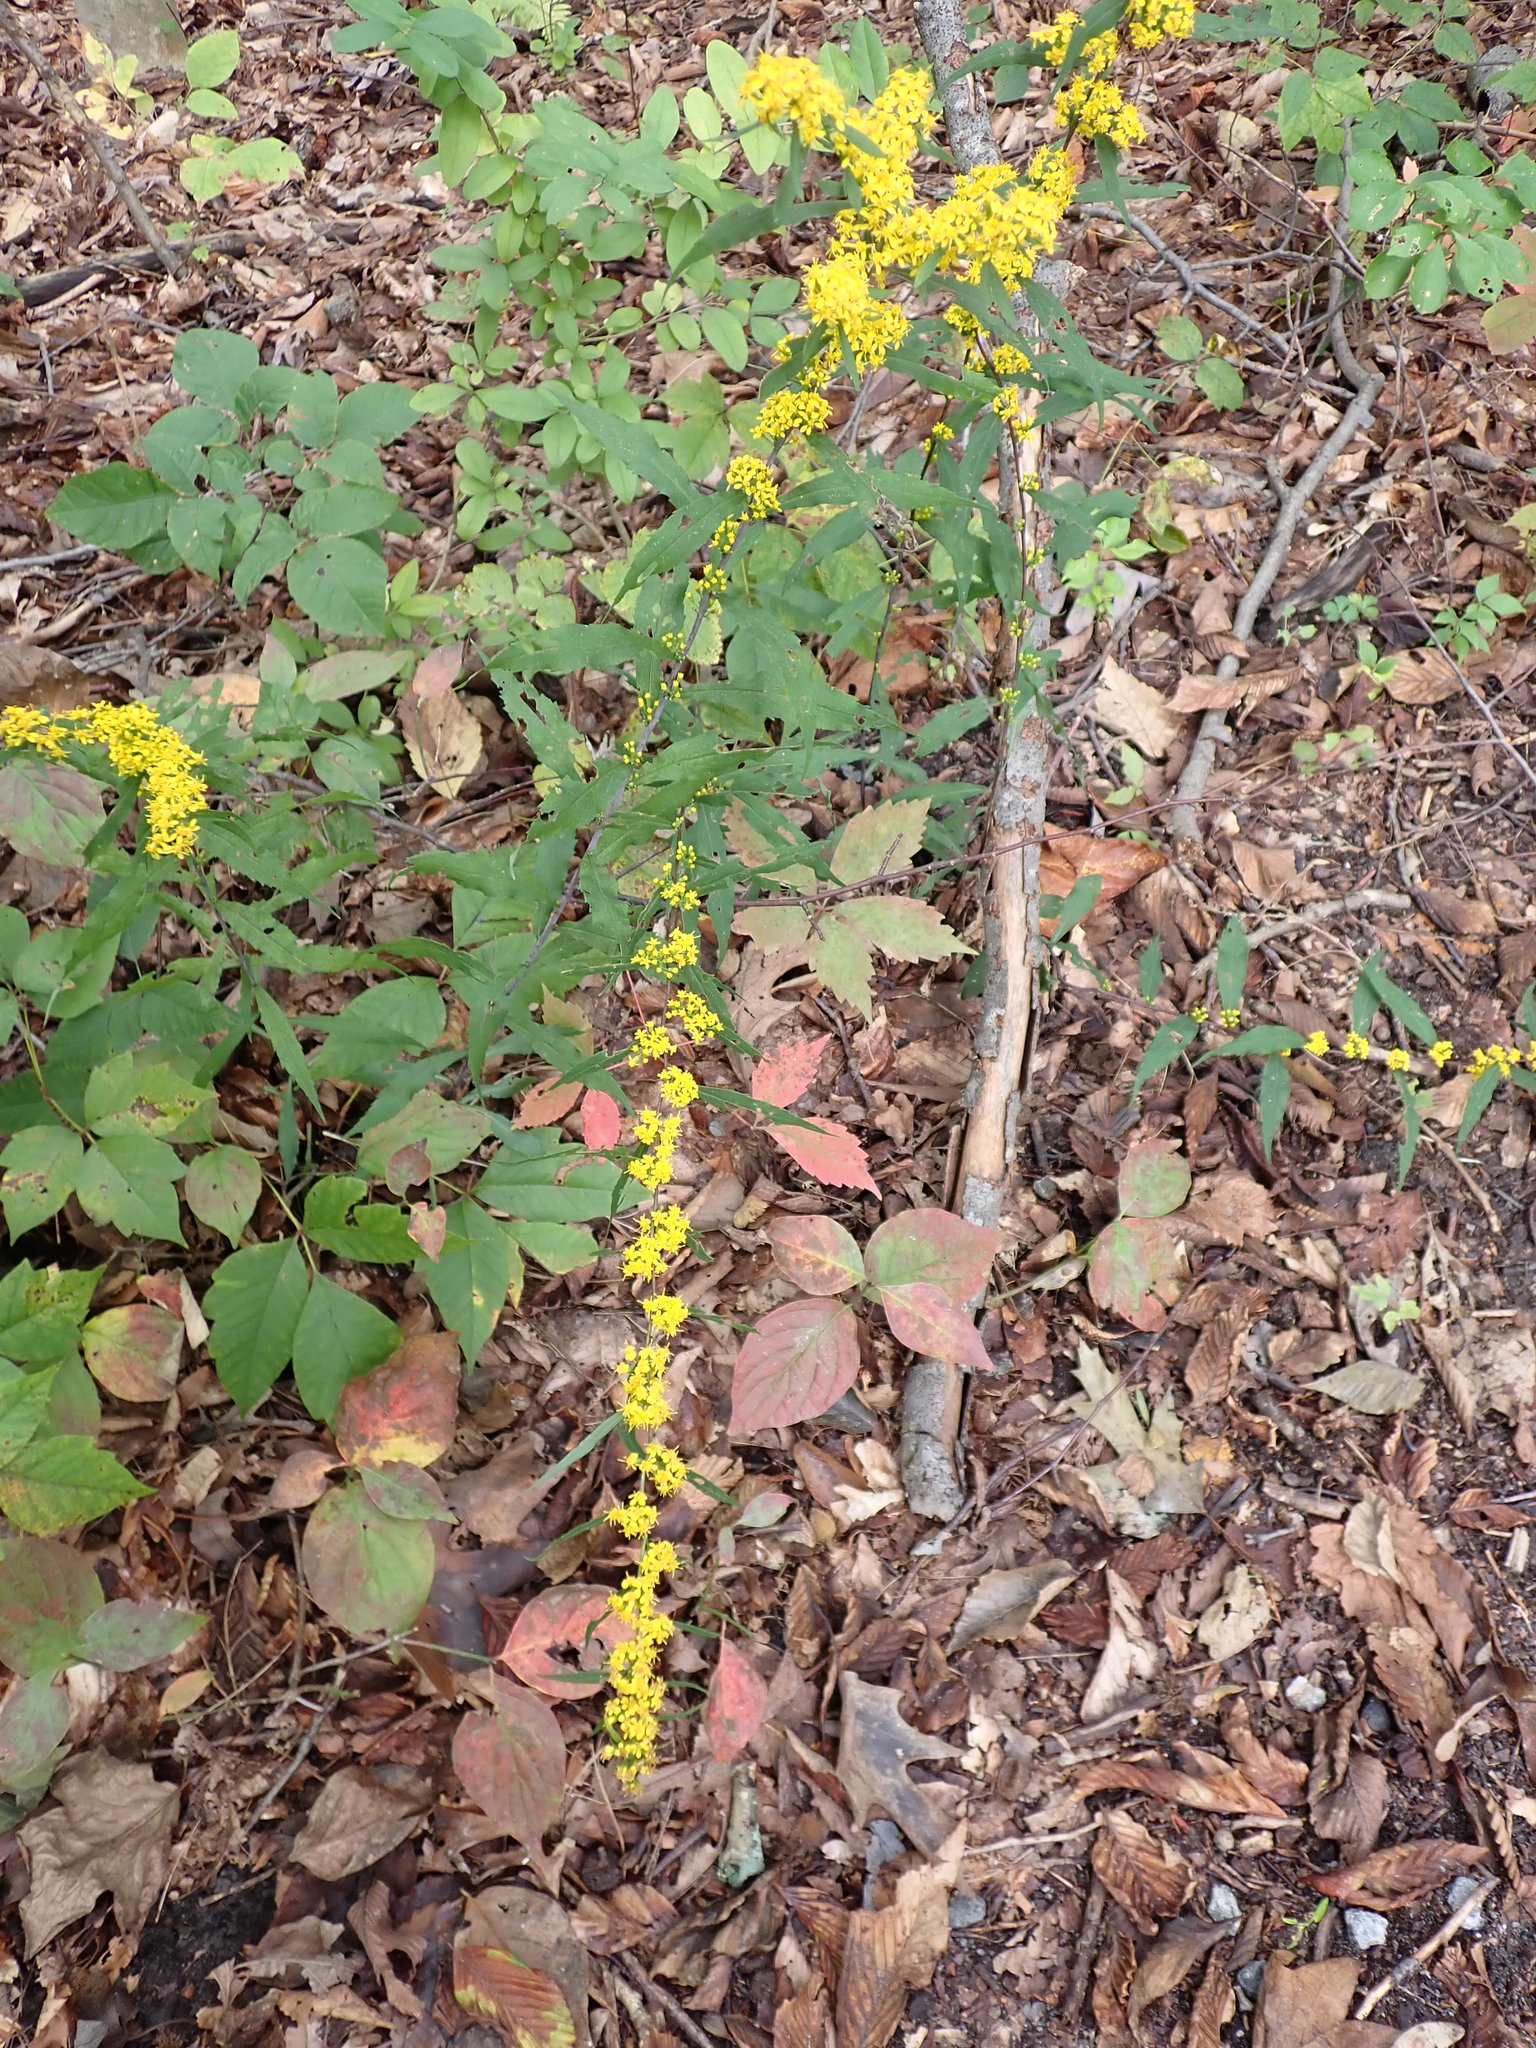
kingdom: Plantae
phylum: Tracheophyta
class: Magnoliopsida
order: Asterales
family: Asteraceae
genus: Solidago
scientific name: Solidago caesia
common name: Woodland goldenrod
